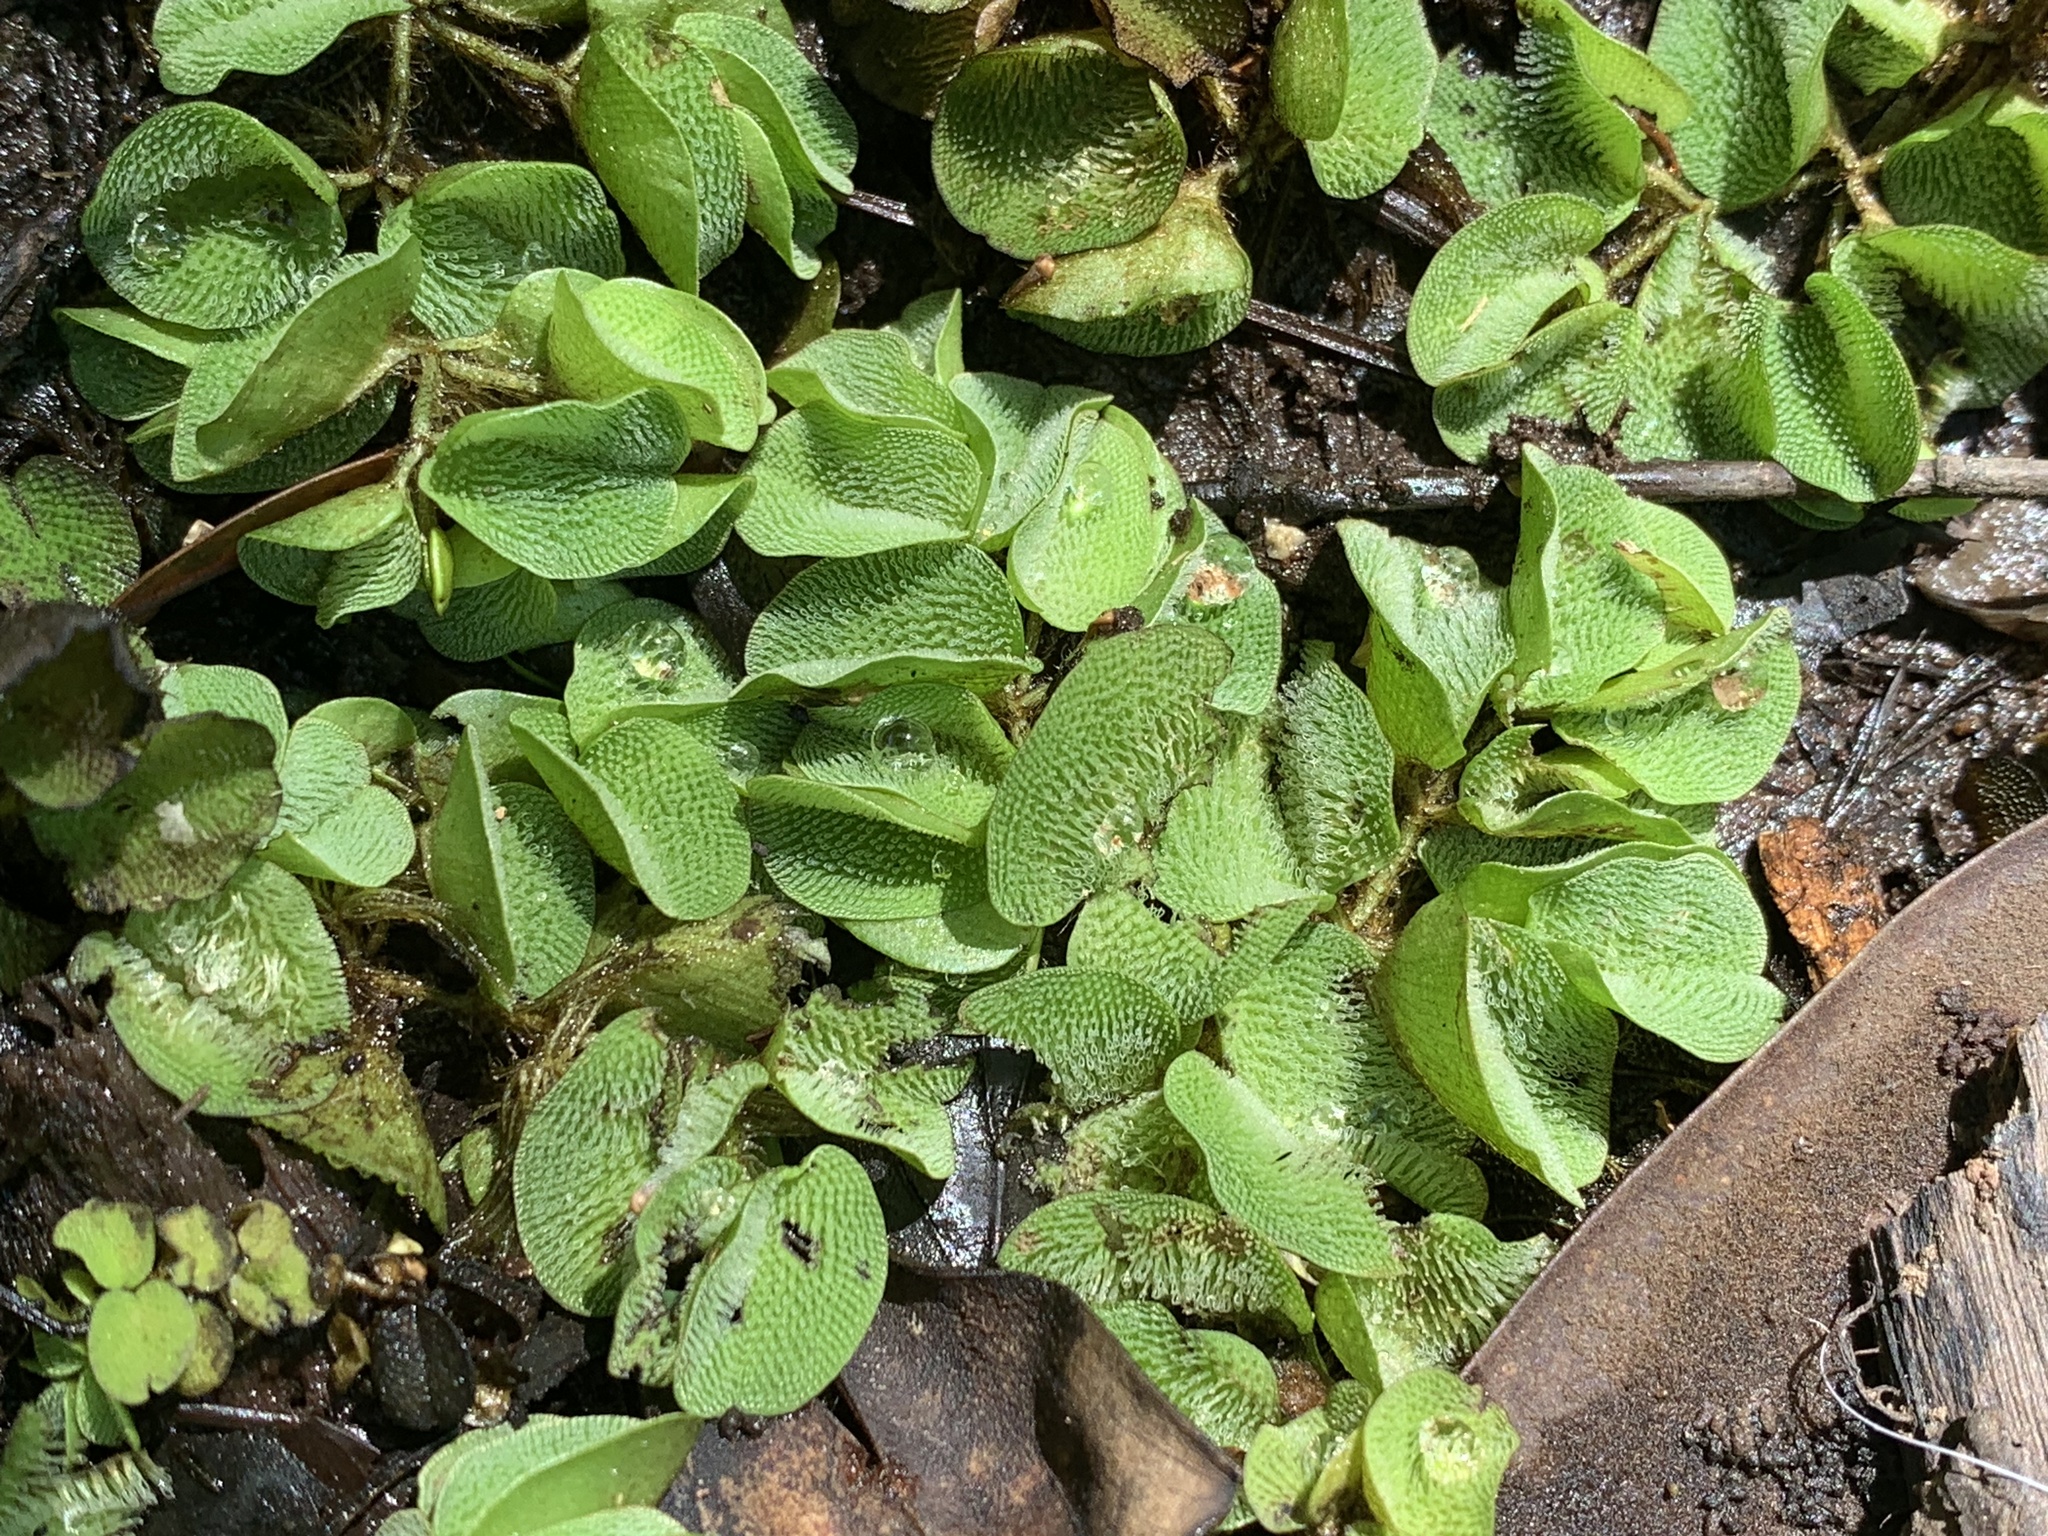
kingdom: Plantae
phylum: Tracheophyta
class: Polypodiopsida
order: Salviniales
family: Salviniaceae
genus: Salvinia
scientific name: Salvinia molesta
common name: Kariba weed
